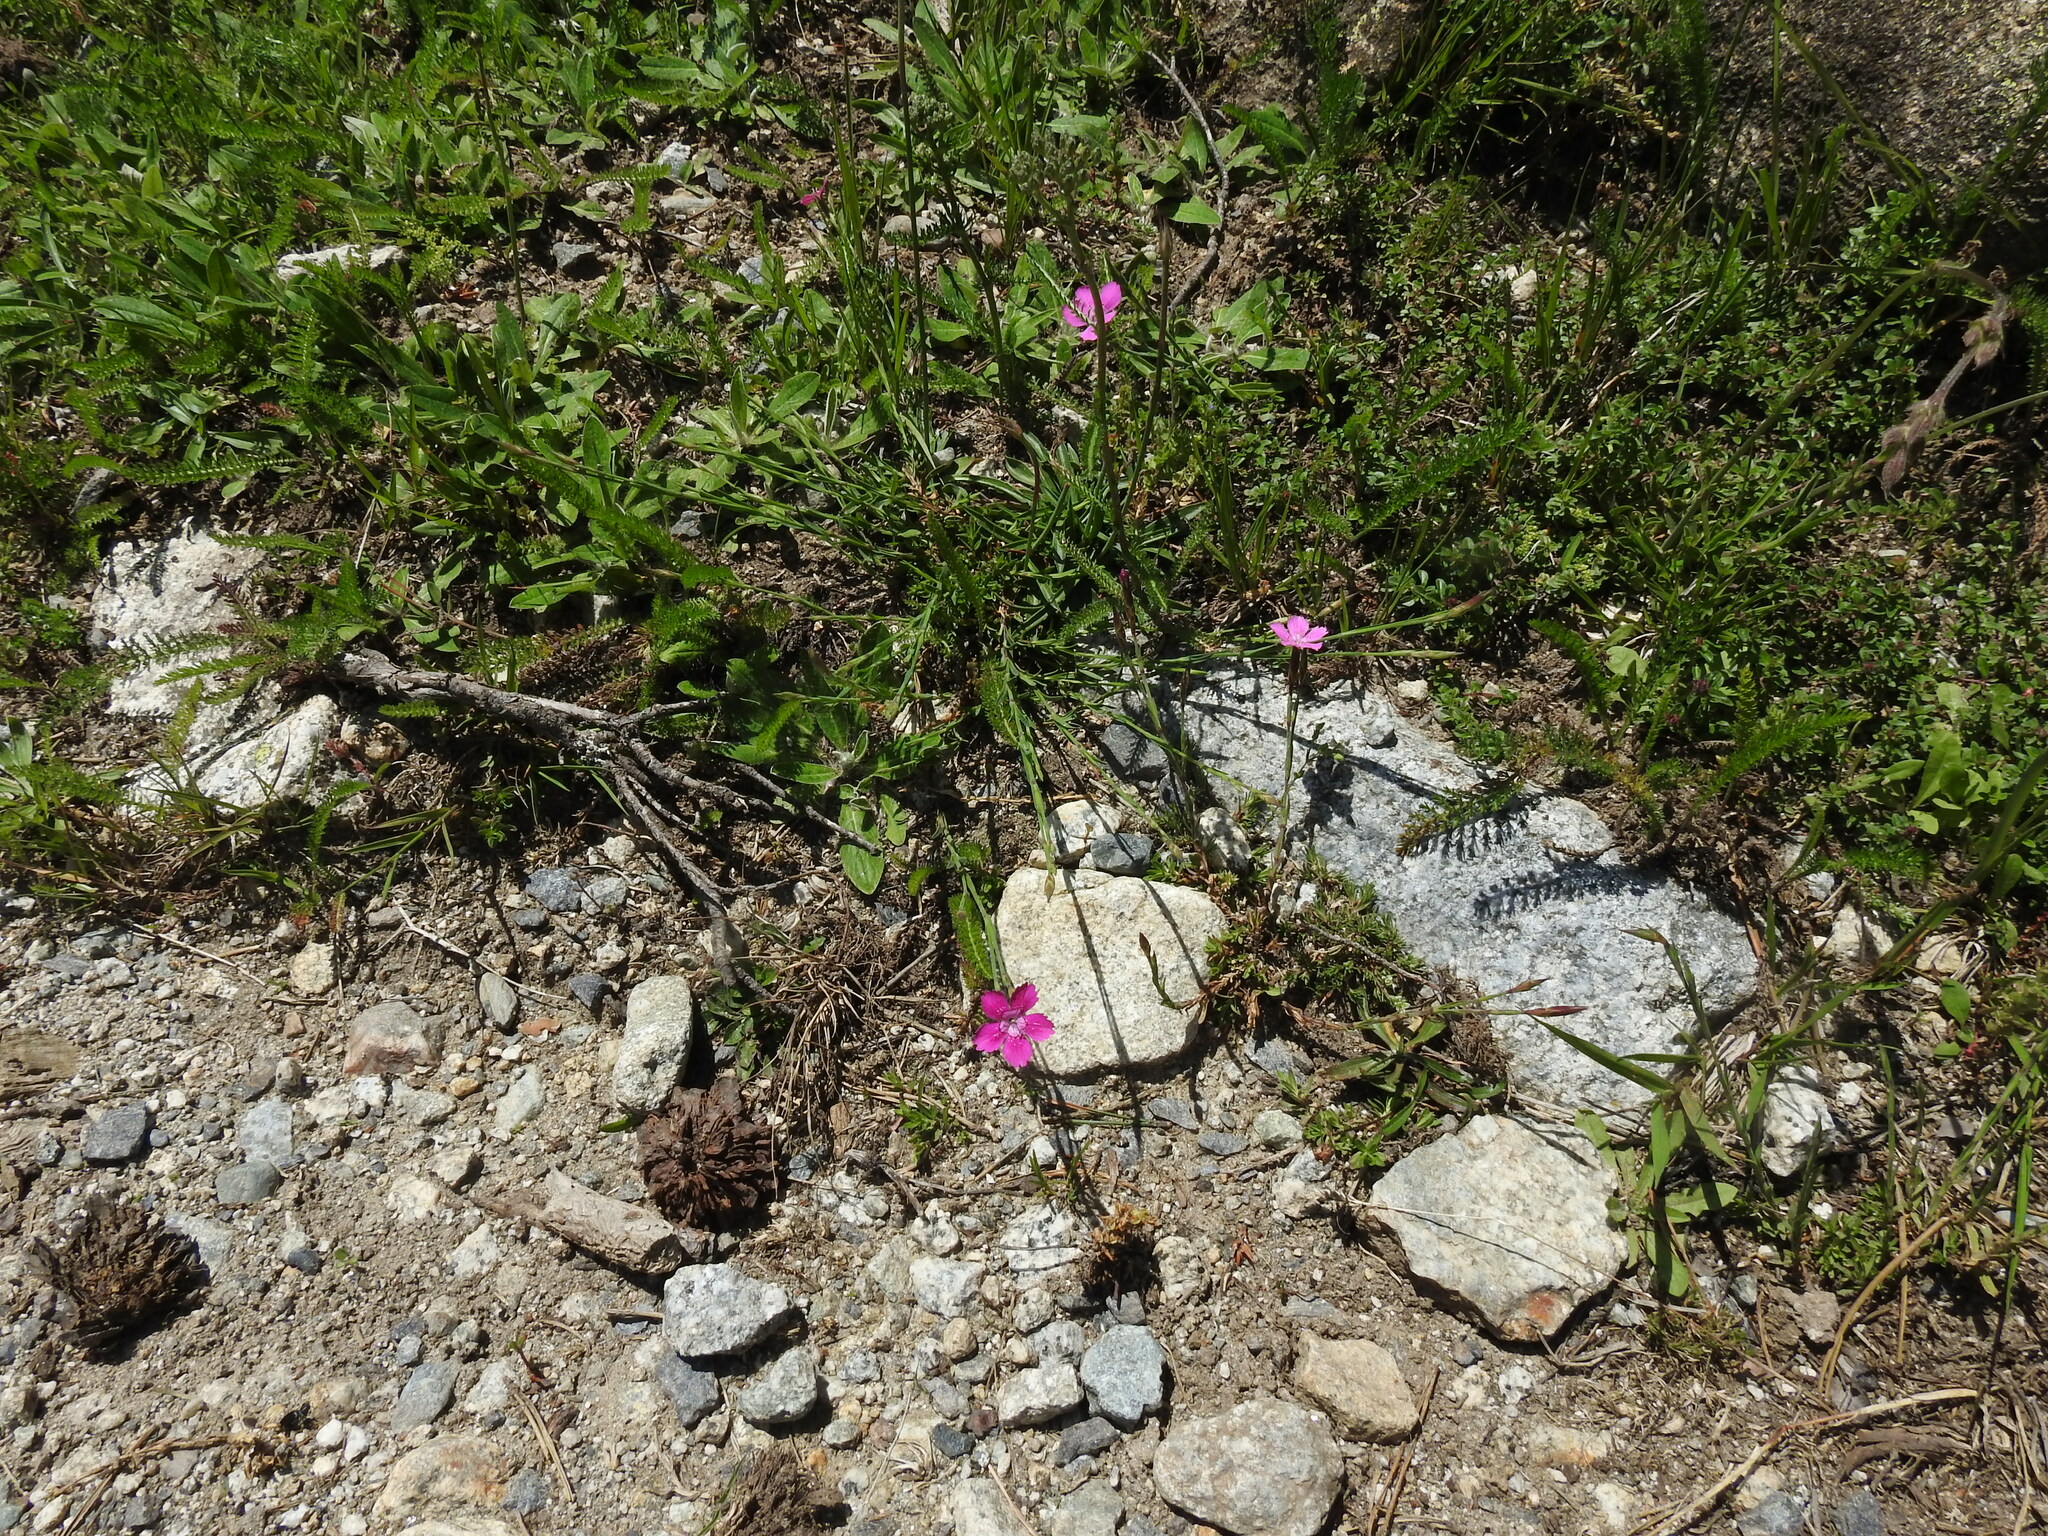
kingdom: Plantae
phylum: Tracheophyta
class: Magnoliopsida
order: Caryophyllales
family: Caryophyllaceae
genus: Dianthus
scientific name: Dianthus deltoides
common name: Maiden pink
